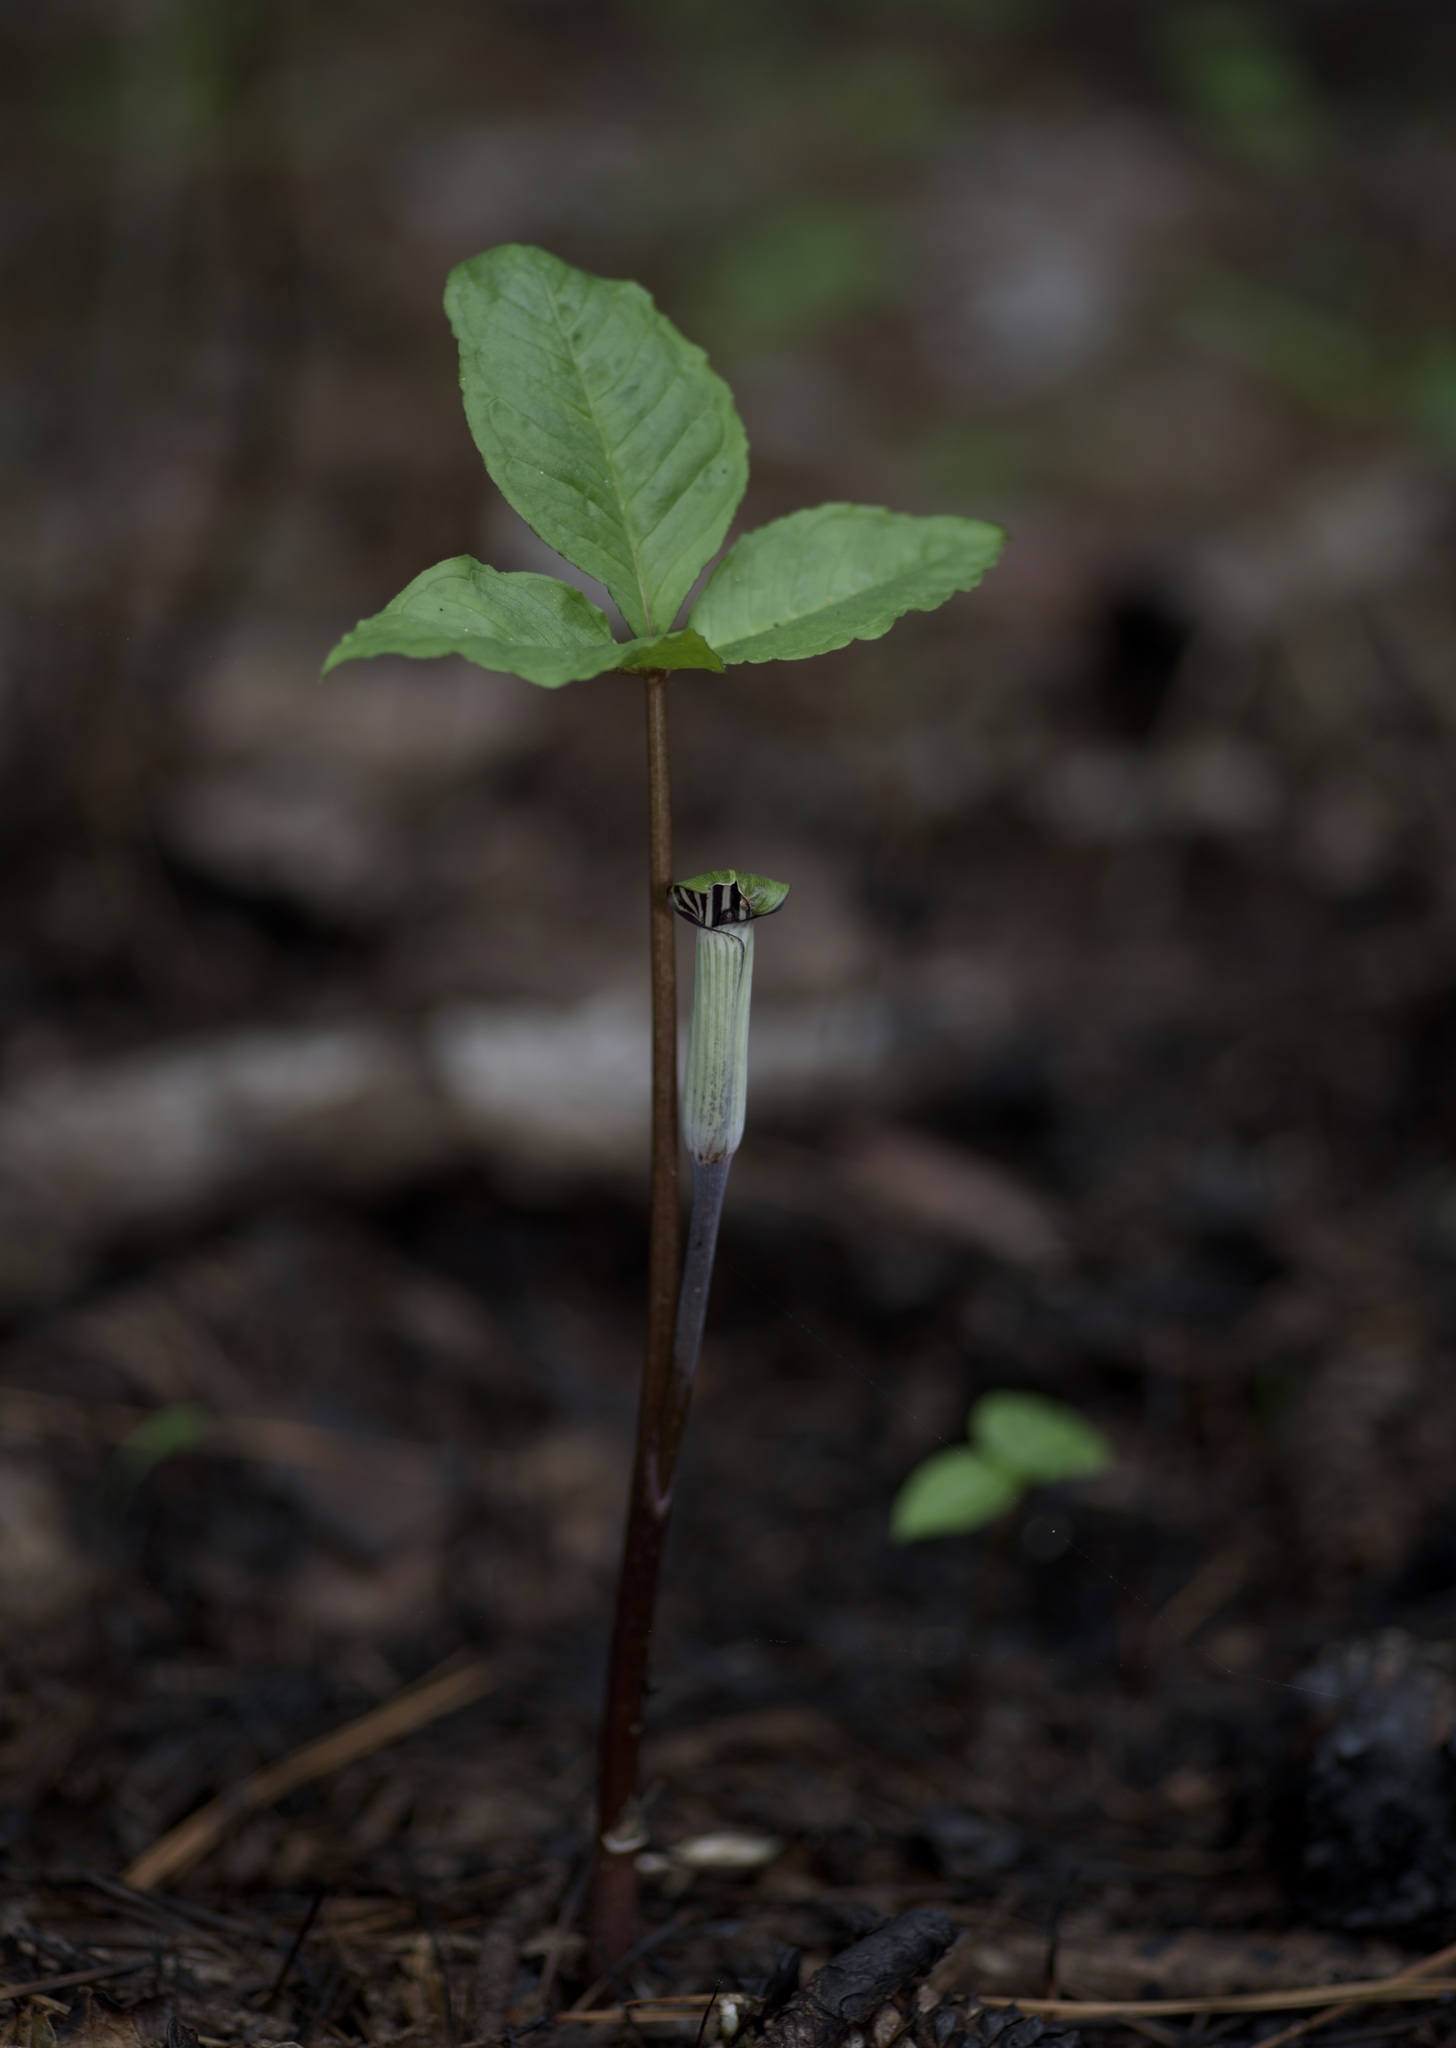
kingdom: Plantae
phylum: Tracheophyta
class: Liliopsida
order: Alismatales
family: Araceae
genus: Arisaema
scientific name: Arisaema triphyllum
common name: Jack-in-the-pulpit
